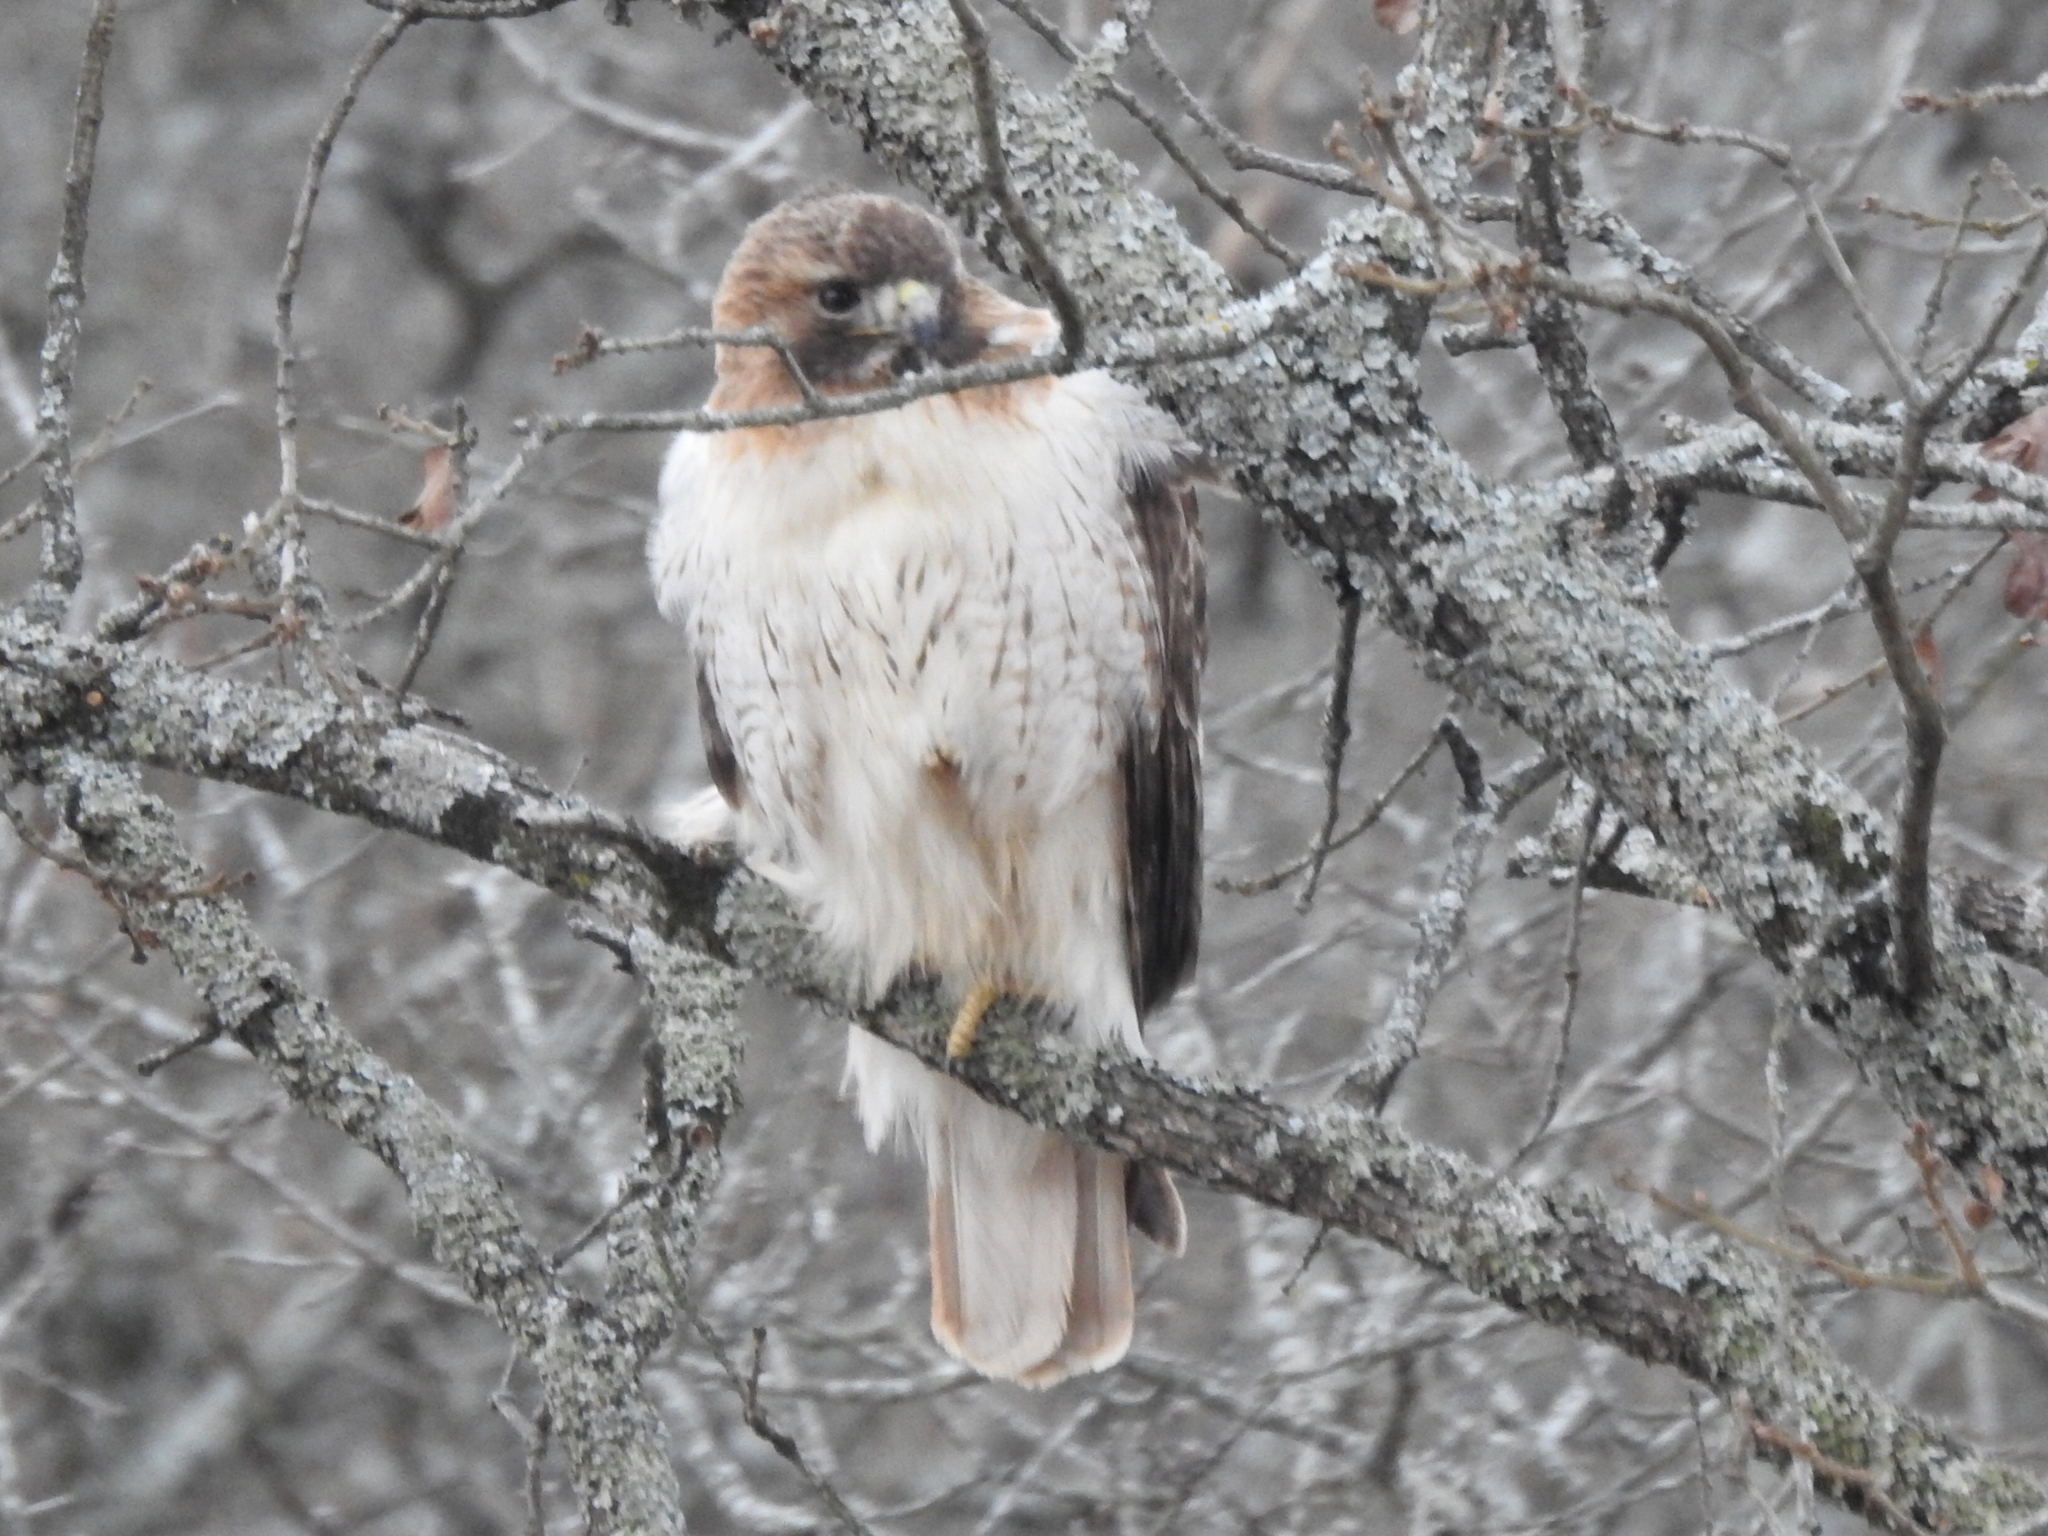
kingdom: Animalia
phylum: Chordata
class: Aves
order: Accipitriformes
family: Accipitridae
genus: Buteo
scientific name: Buteo jamaicensis
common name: Red-tailed hawk
